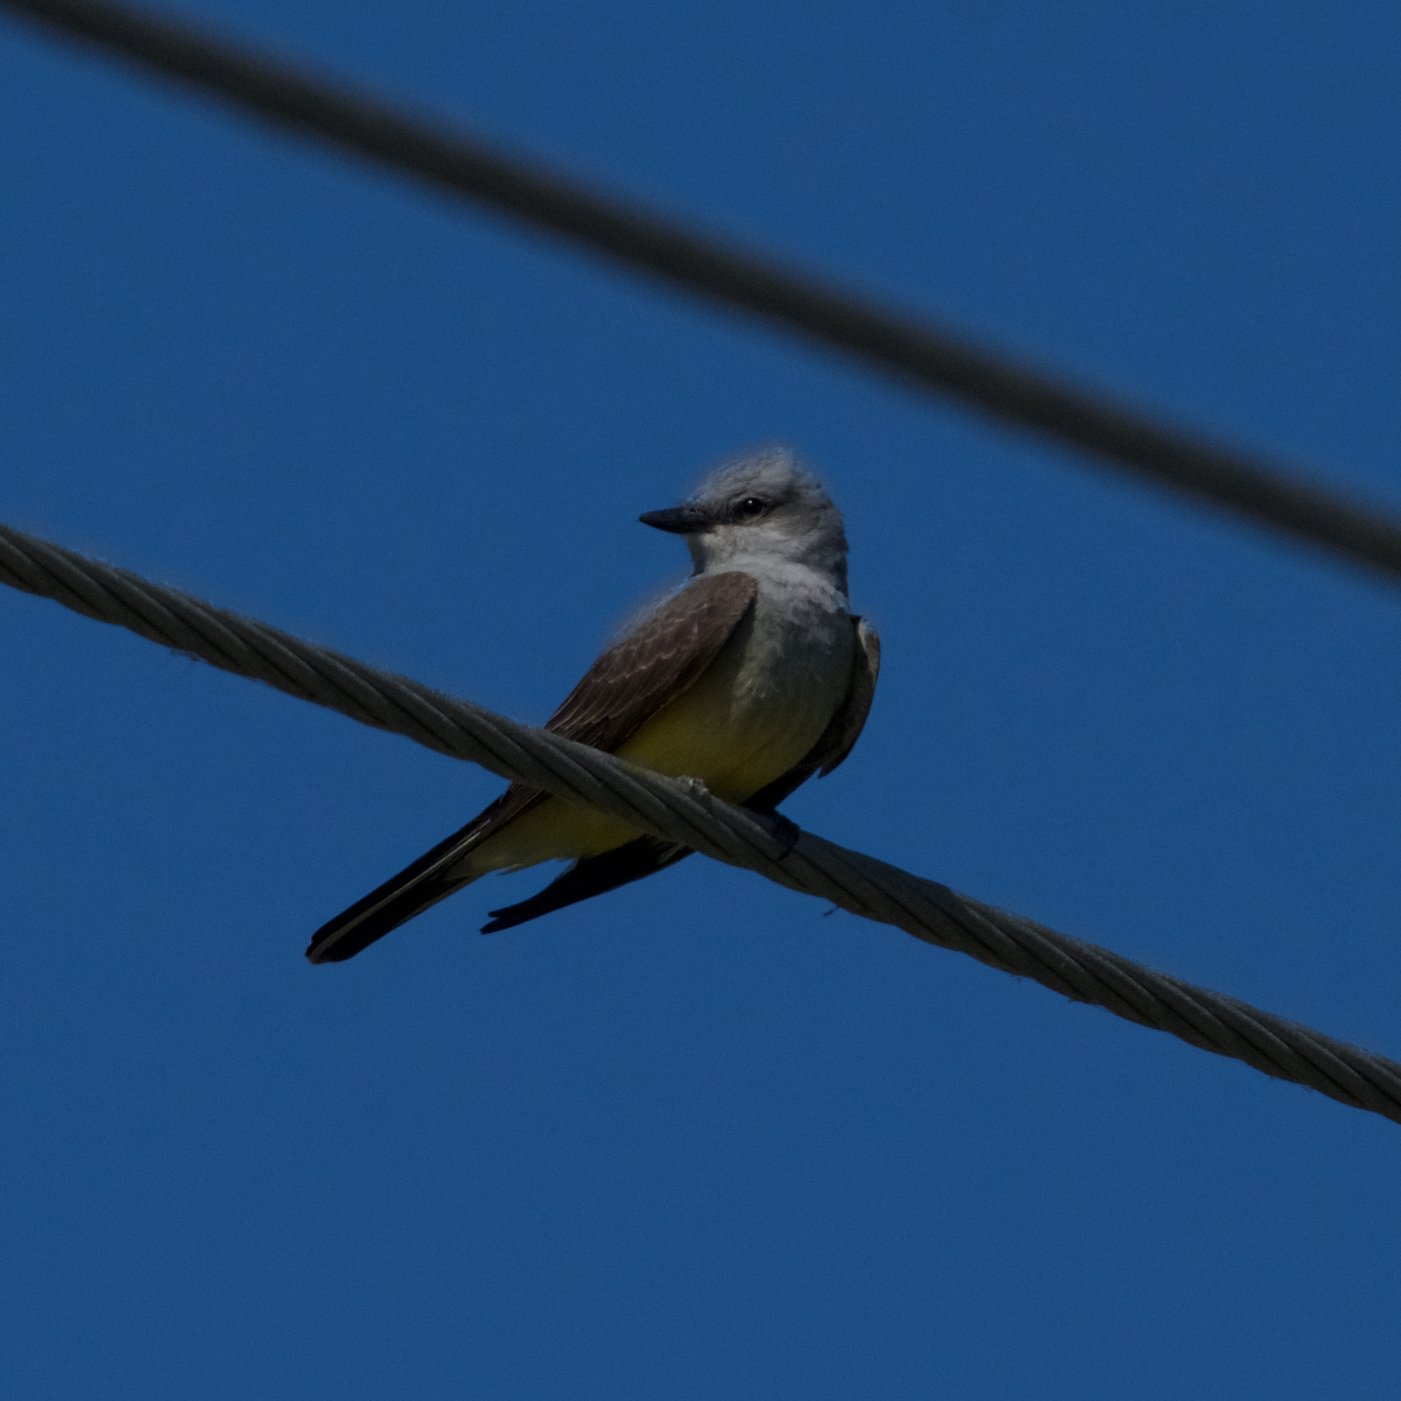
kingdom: Animalia
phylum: Chordata
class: Aves
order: Passeriformes
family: Tyrannidae
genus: Tyrannus
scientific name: Tyrannus verticalis
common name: Western kingbird
